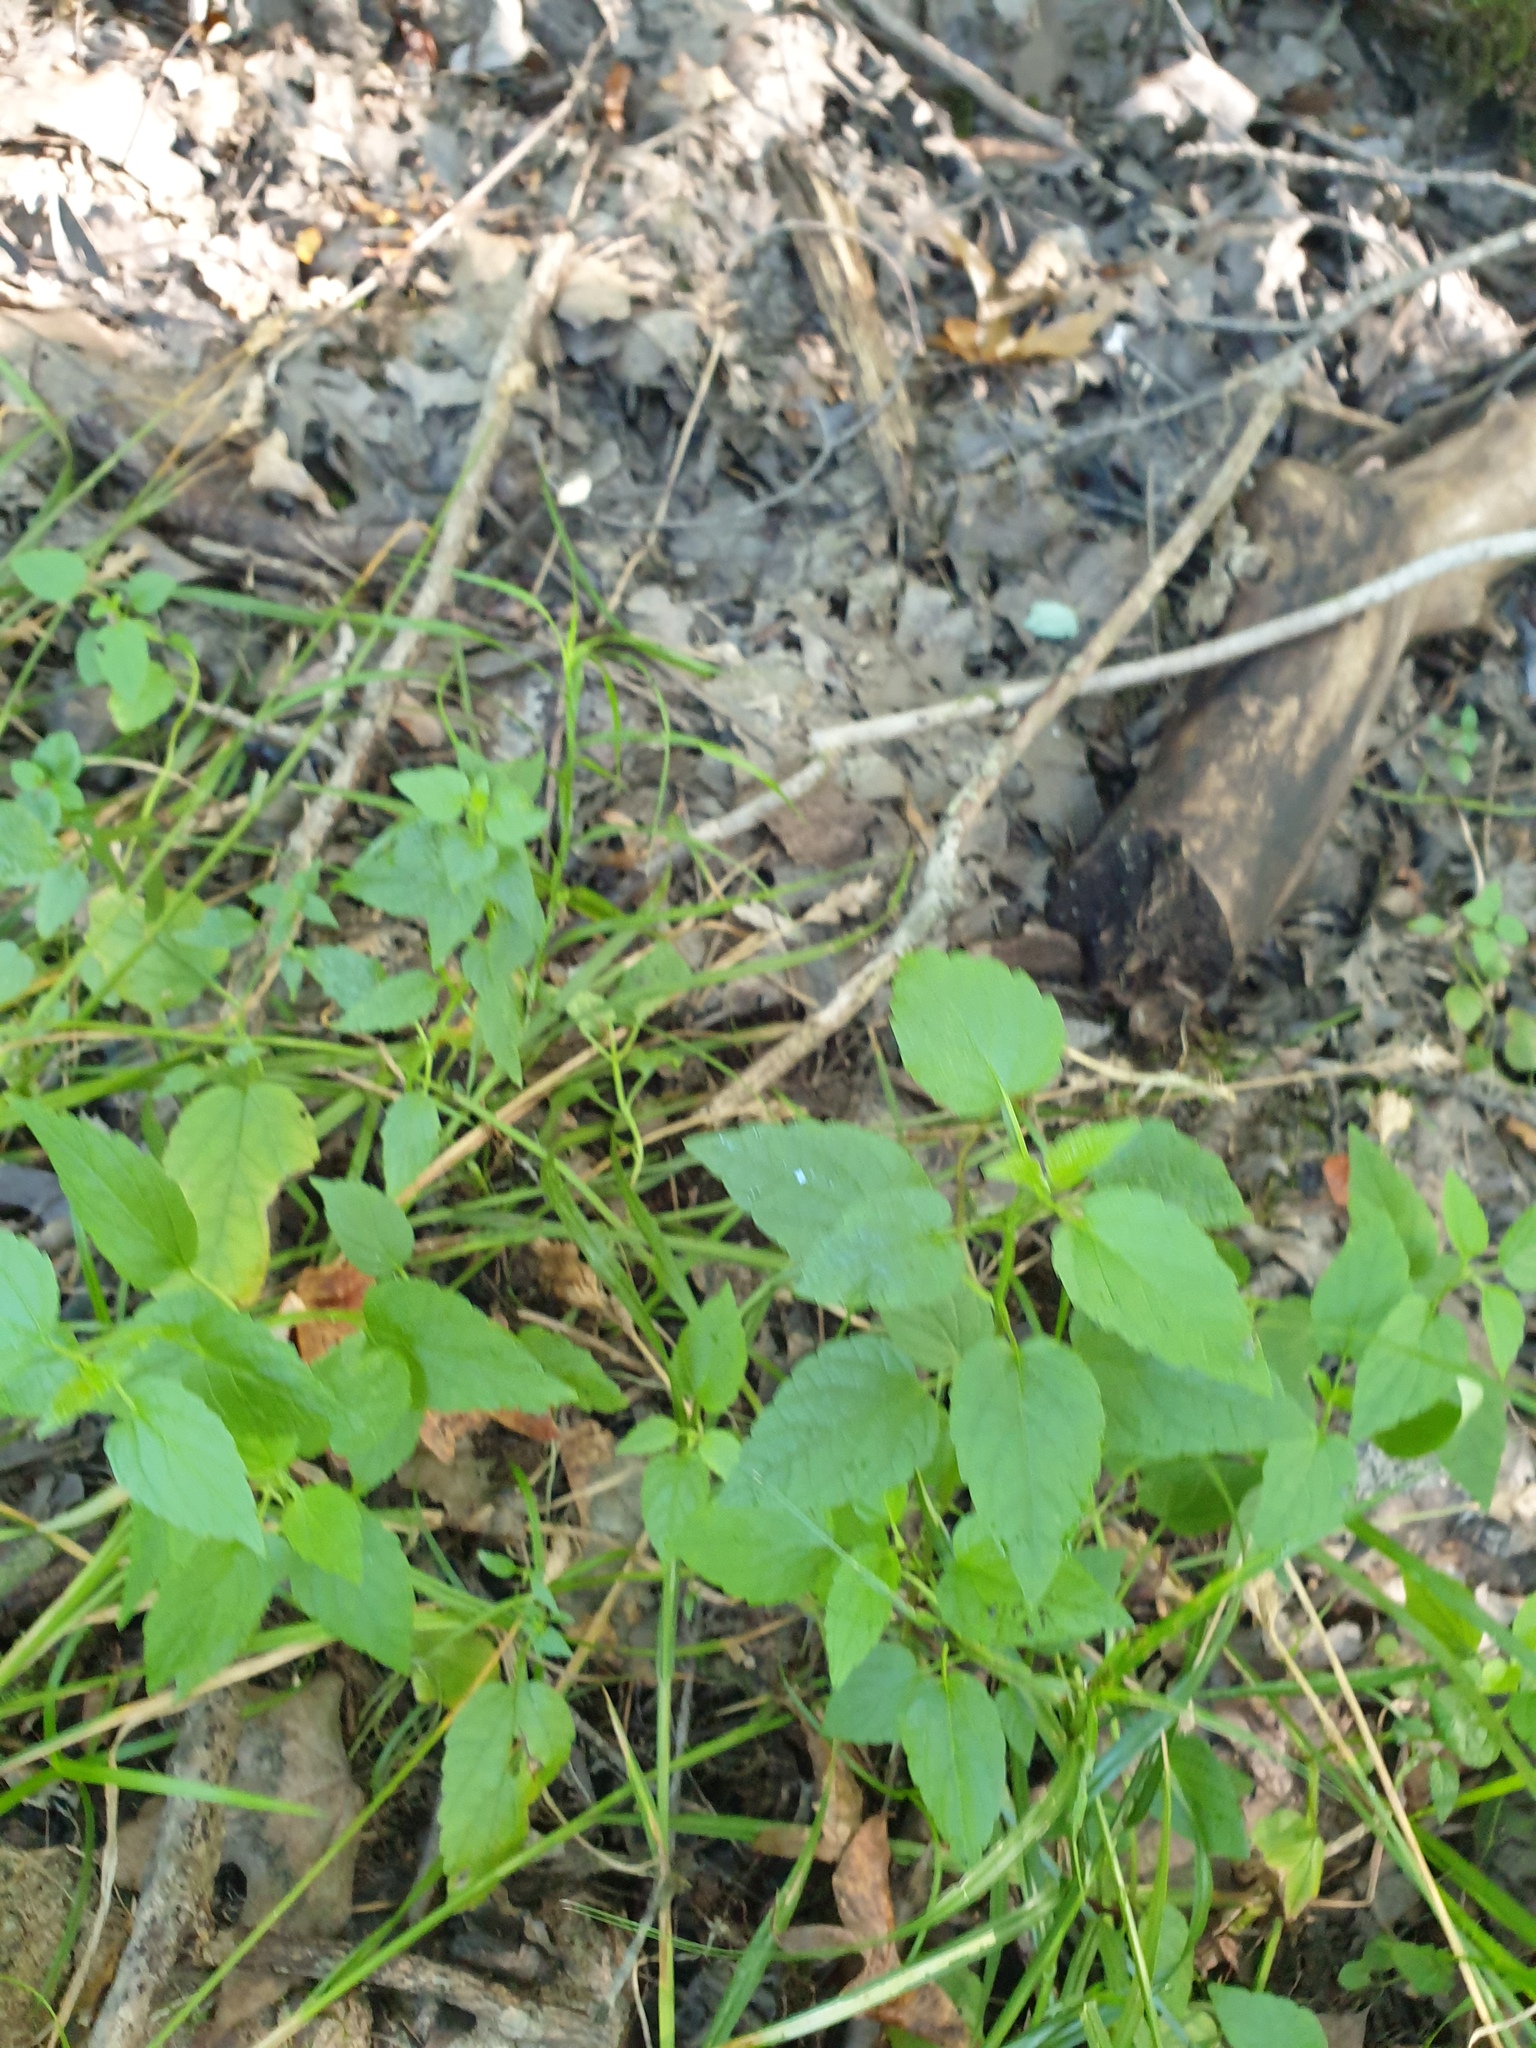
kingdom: Plantae
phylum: Tracheophyta
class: Magnoliopsida
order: Lamiales
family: Lamiaceae
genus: Scutellaria
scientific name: Scutellaria lateriflora
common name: Blue skullcap
